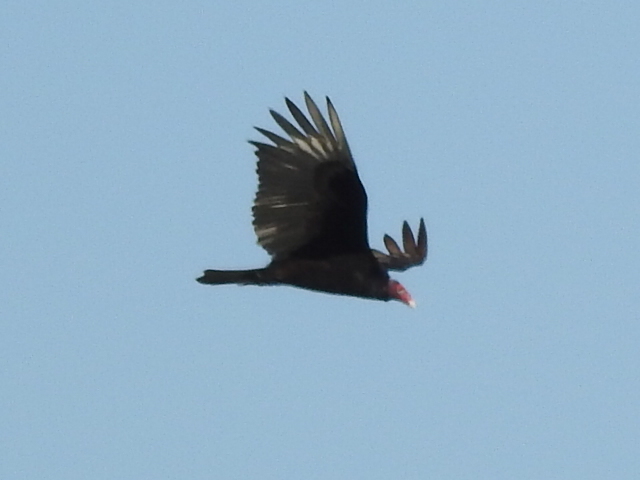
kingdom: Animalia
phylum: Chordata
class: Aves
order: Accipitriformes
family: Cathartidae
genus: Cathartes
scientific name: Cathartes aura
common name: Turkey vulture
